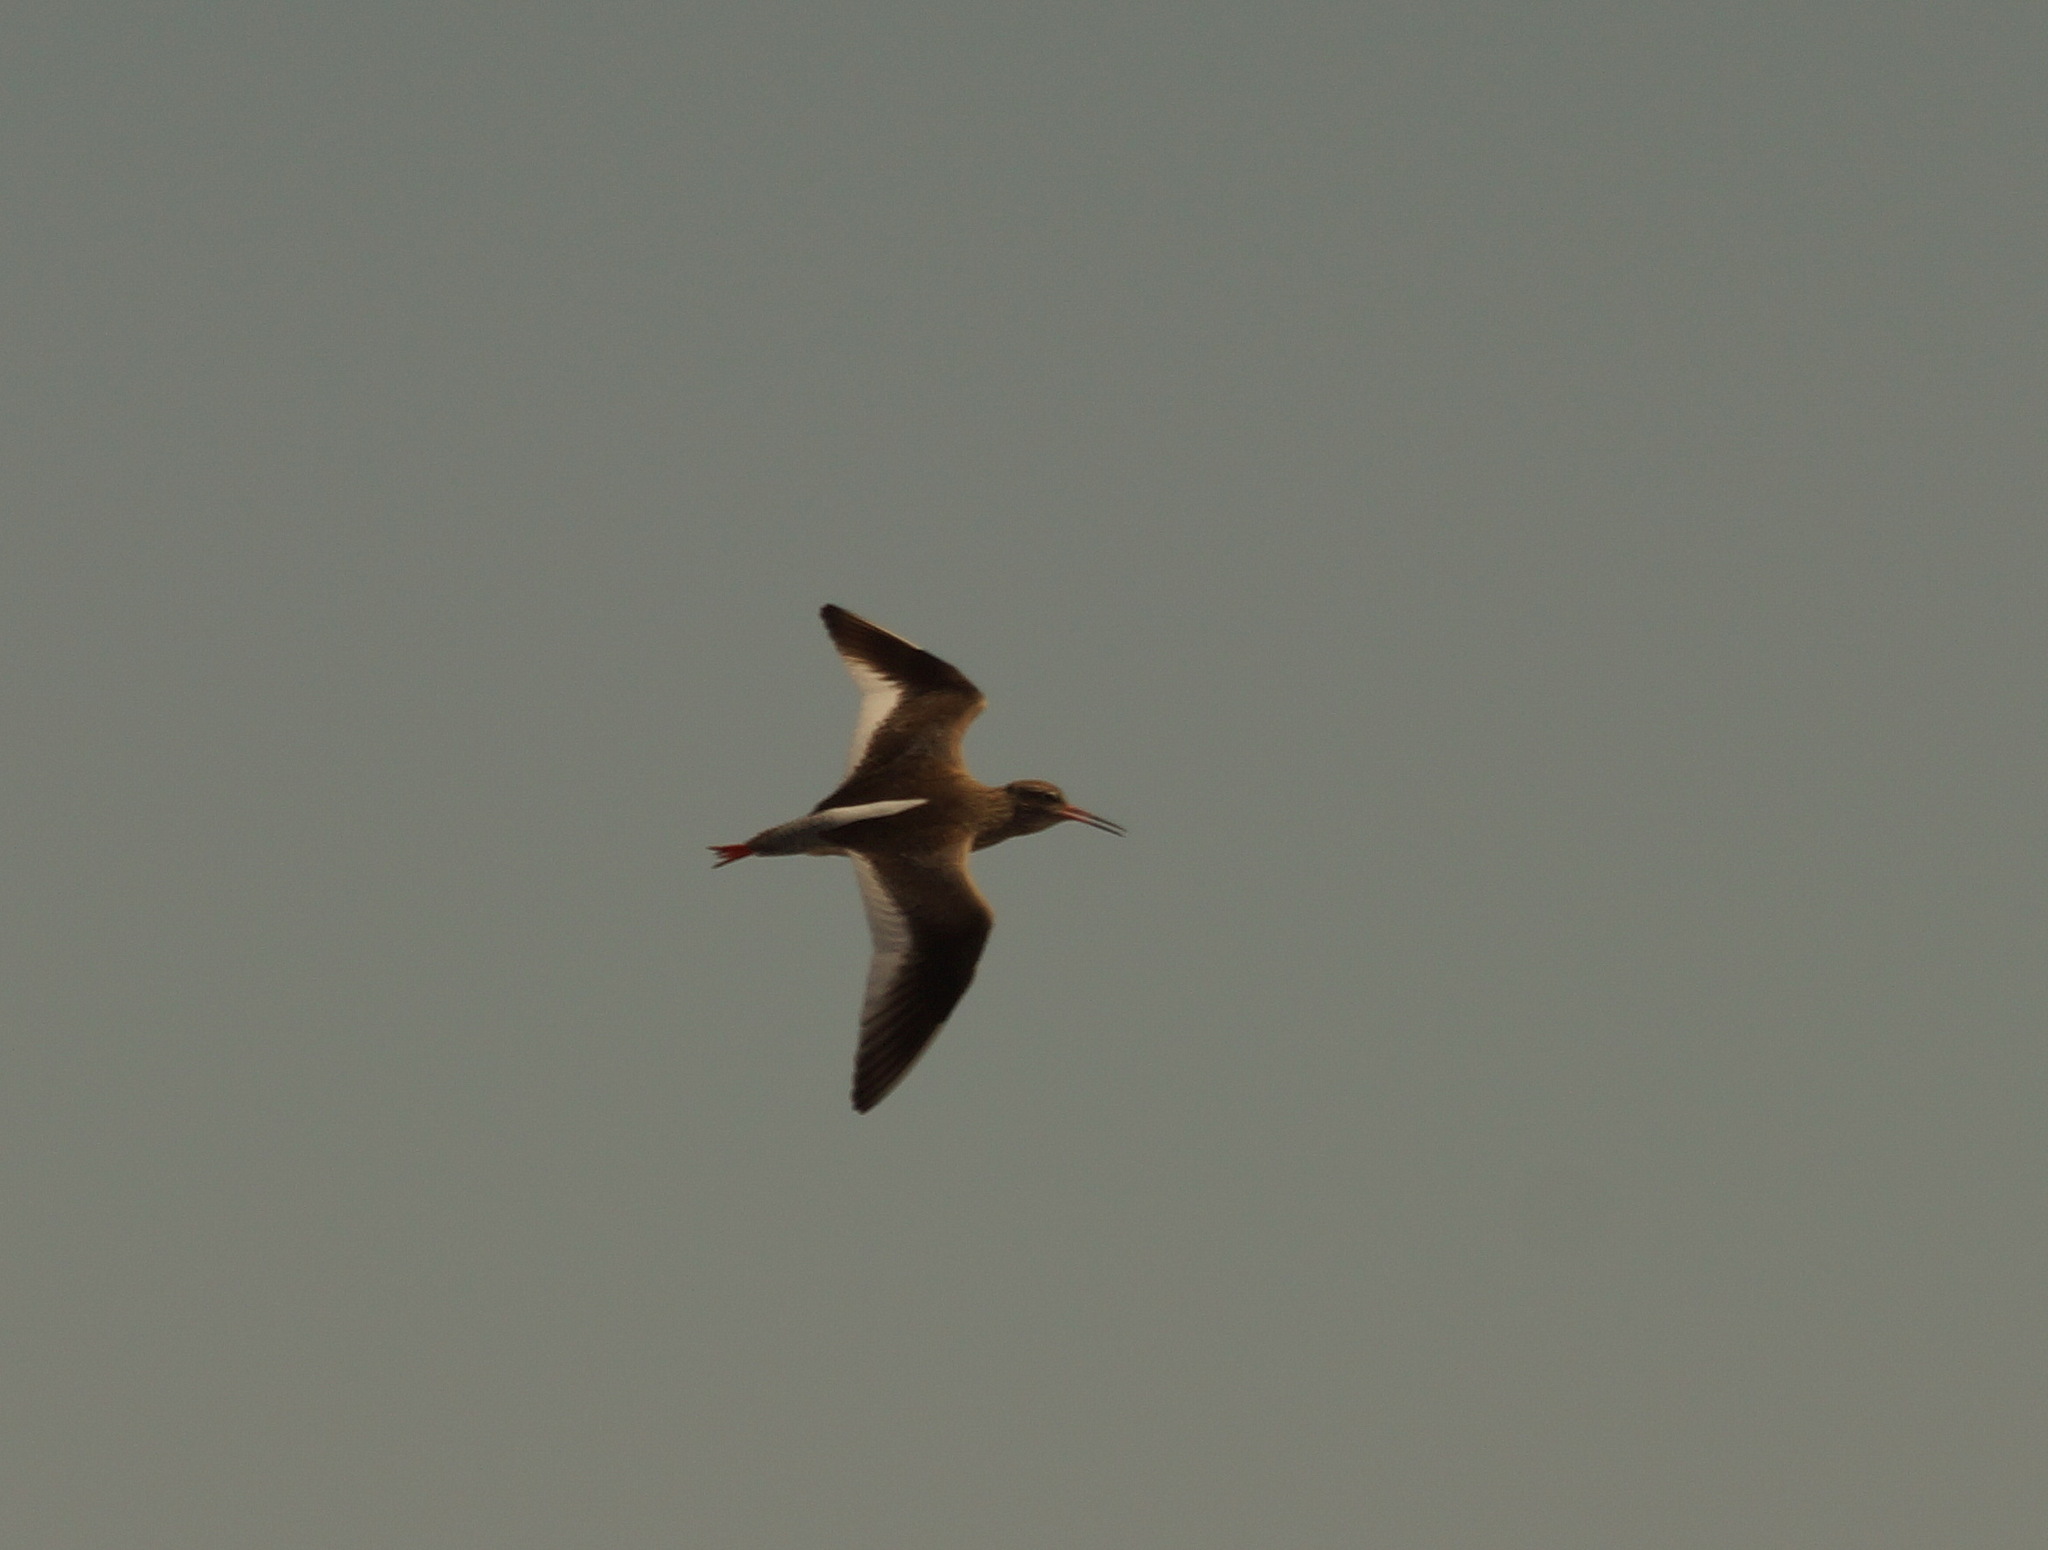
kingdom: Animalia
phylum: Chordata
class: Aves
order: Charadriiformes
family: Scolopacidae
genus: Tringa
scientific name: Tringa totanus
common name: Common redshank
